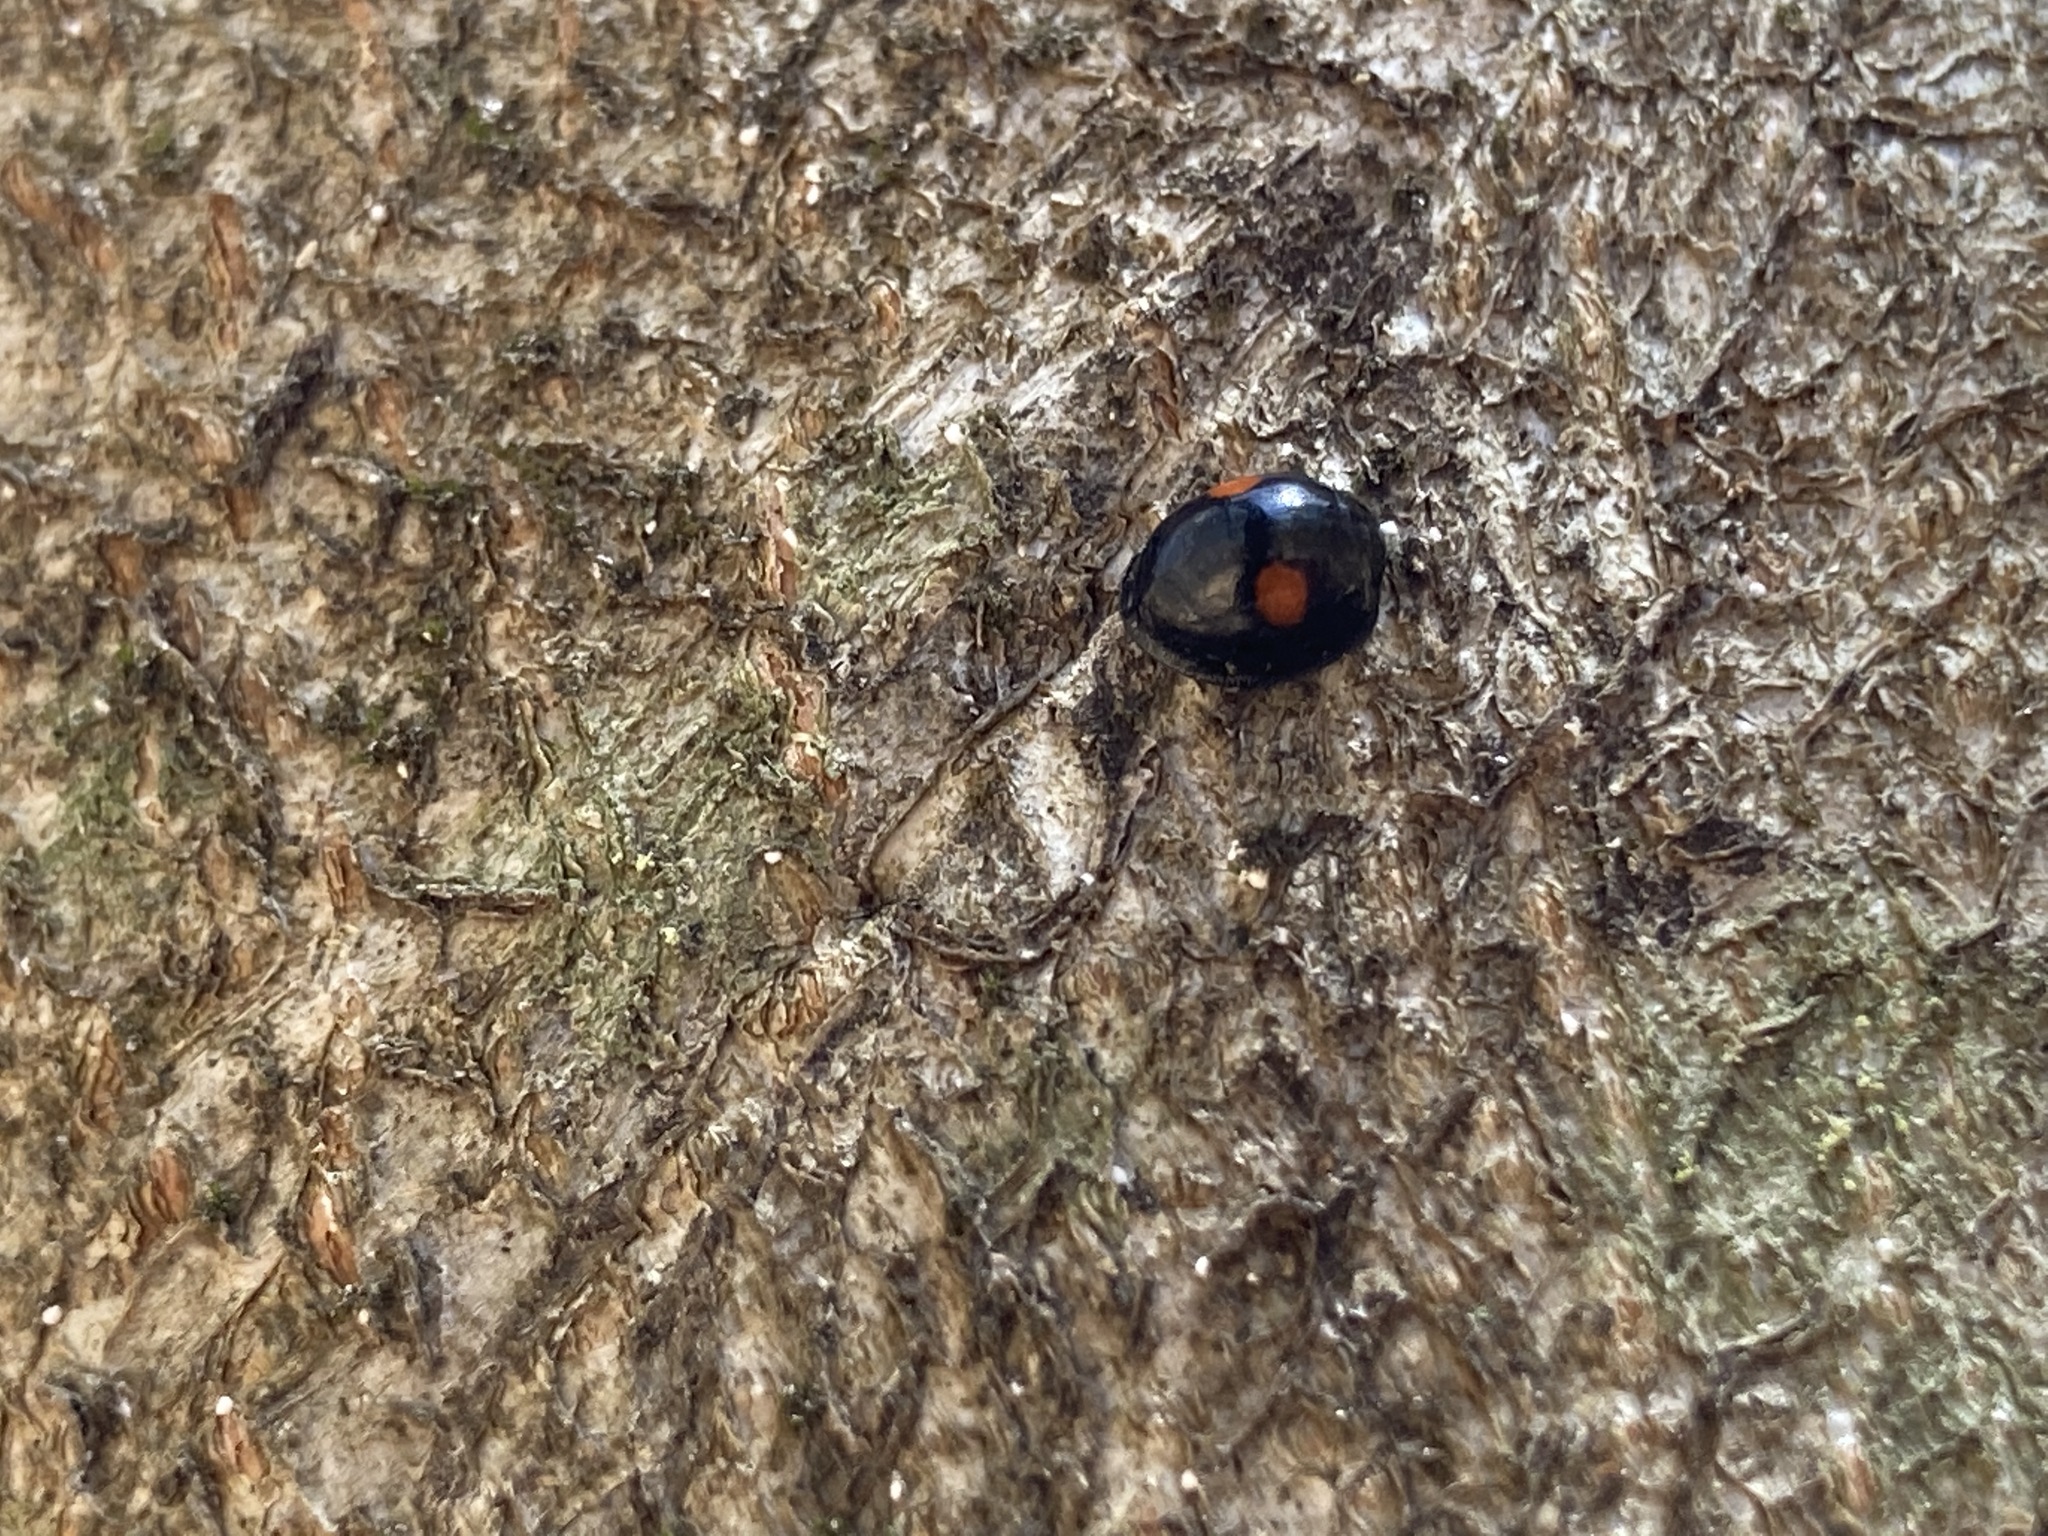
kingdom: Animalia
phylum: Arthropoda
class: Insecta
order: Coleoptera
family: Coccinellidae
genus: Chilocorus
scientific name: Chilocorus stigma
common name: Twicestabbed lady beetle
